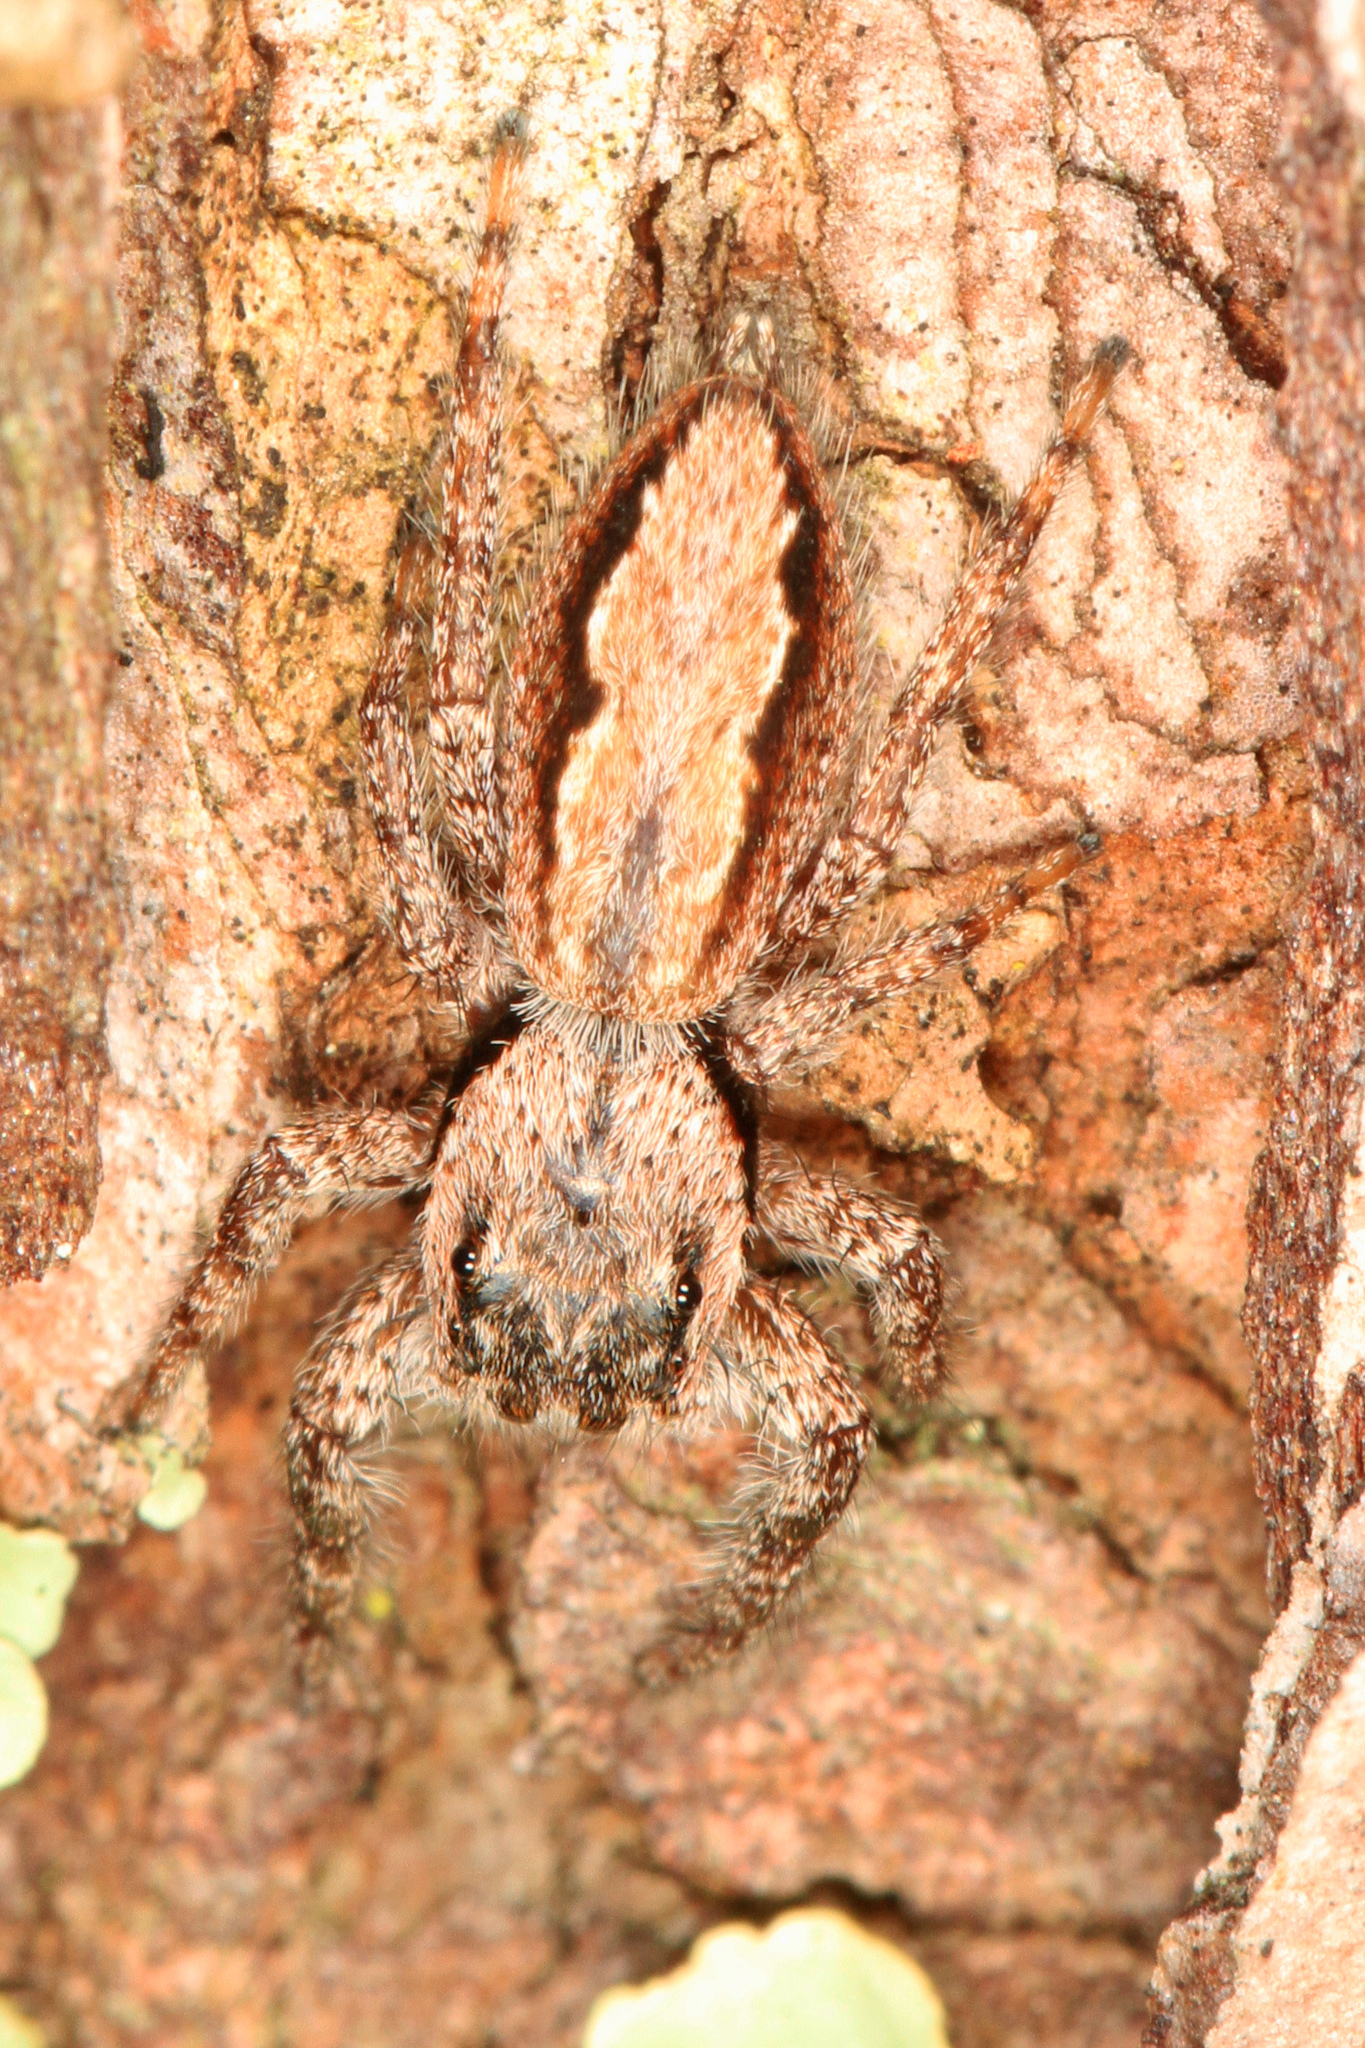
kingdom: Animalia
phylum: Arthropoda
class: Arachnida
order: Araneae
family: Salticidae
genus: Platycryptus
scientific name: Platycryptus undatus
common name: Tan jumping spider
